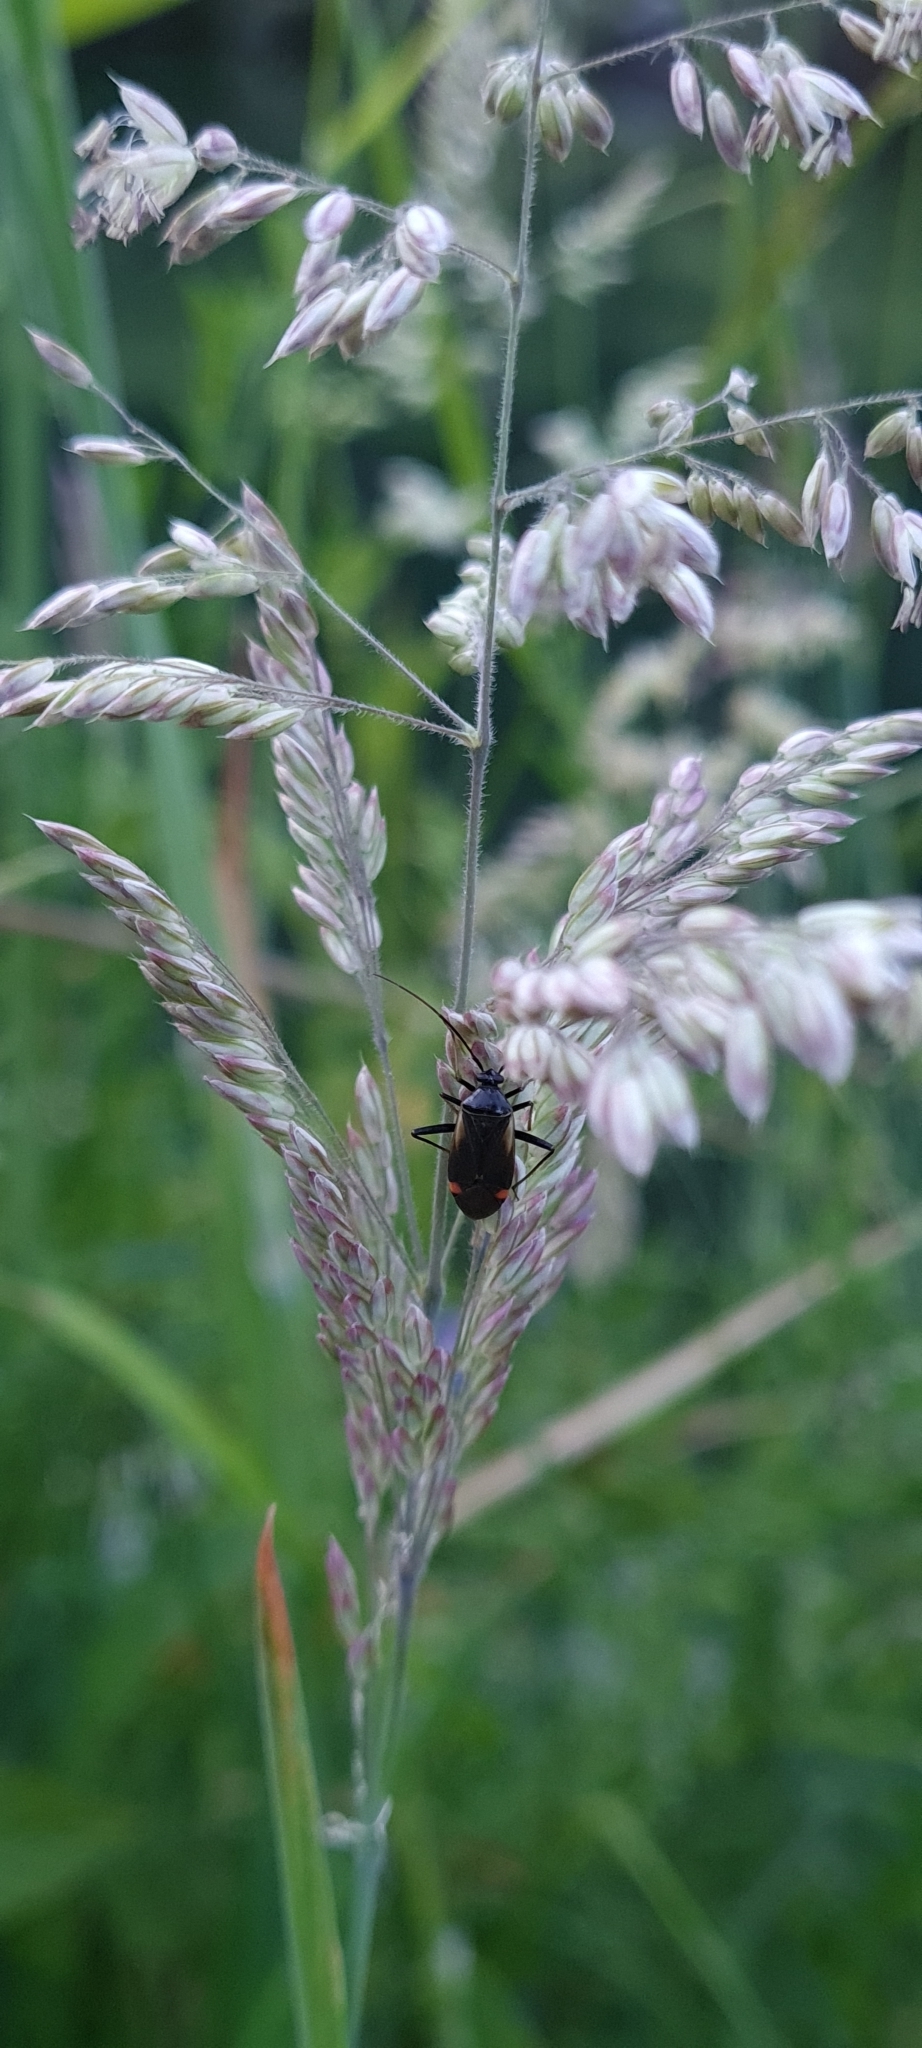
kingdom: Animalia
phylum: Arthropoda
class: Insecta
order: Hemiptera
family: Miridae
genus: Adelphocoris
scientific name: Adelphocoris seticornis
